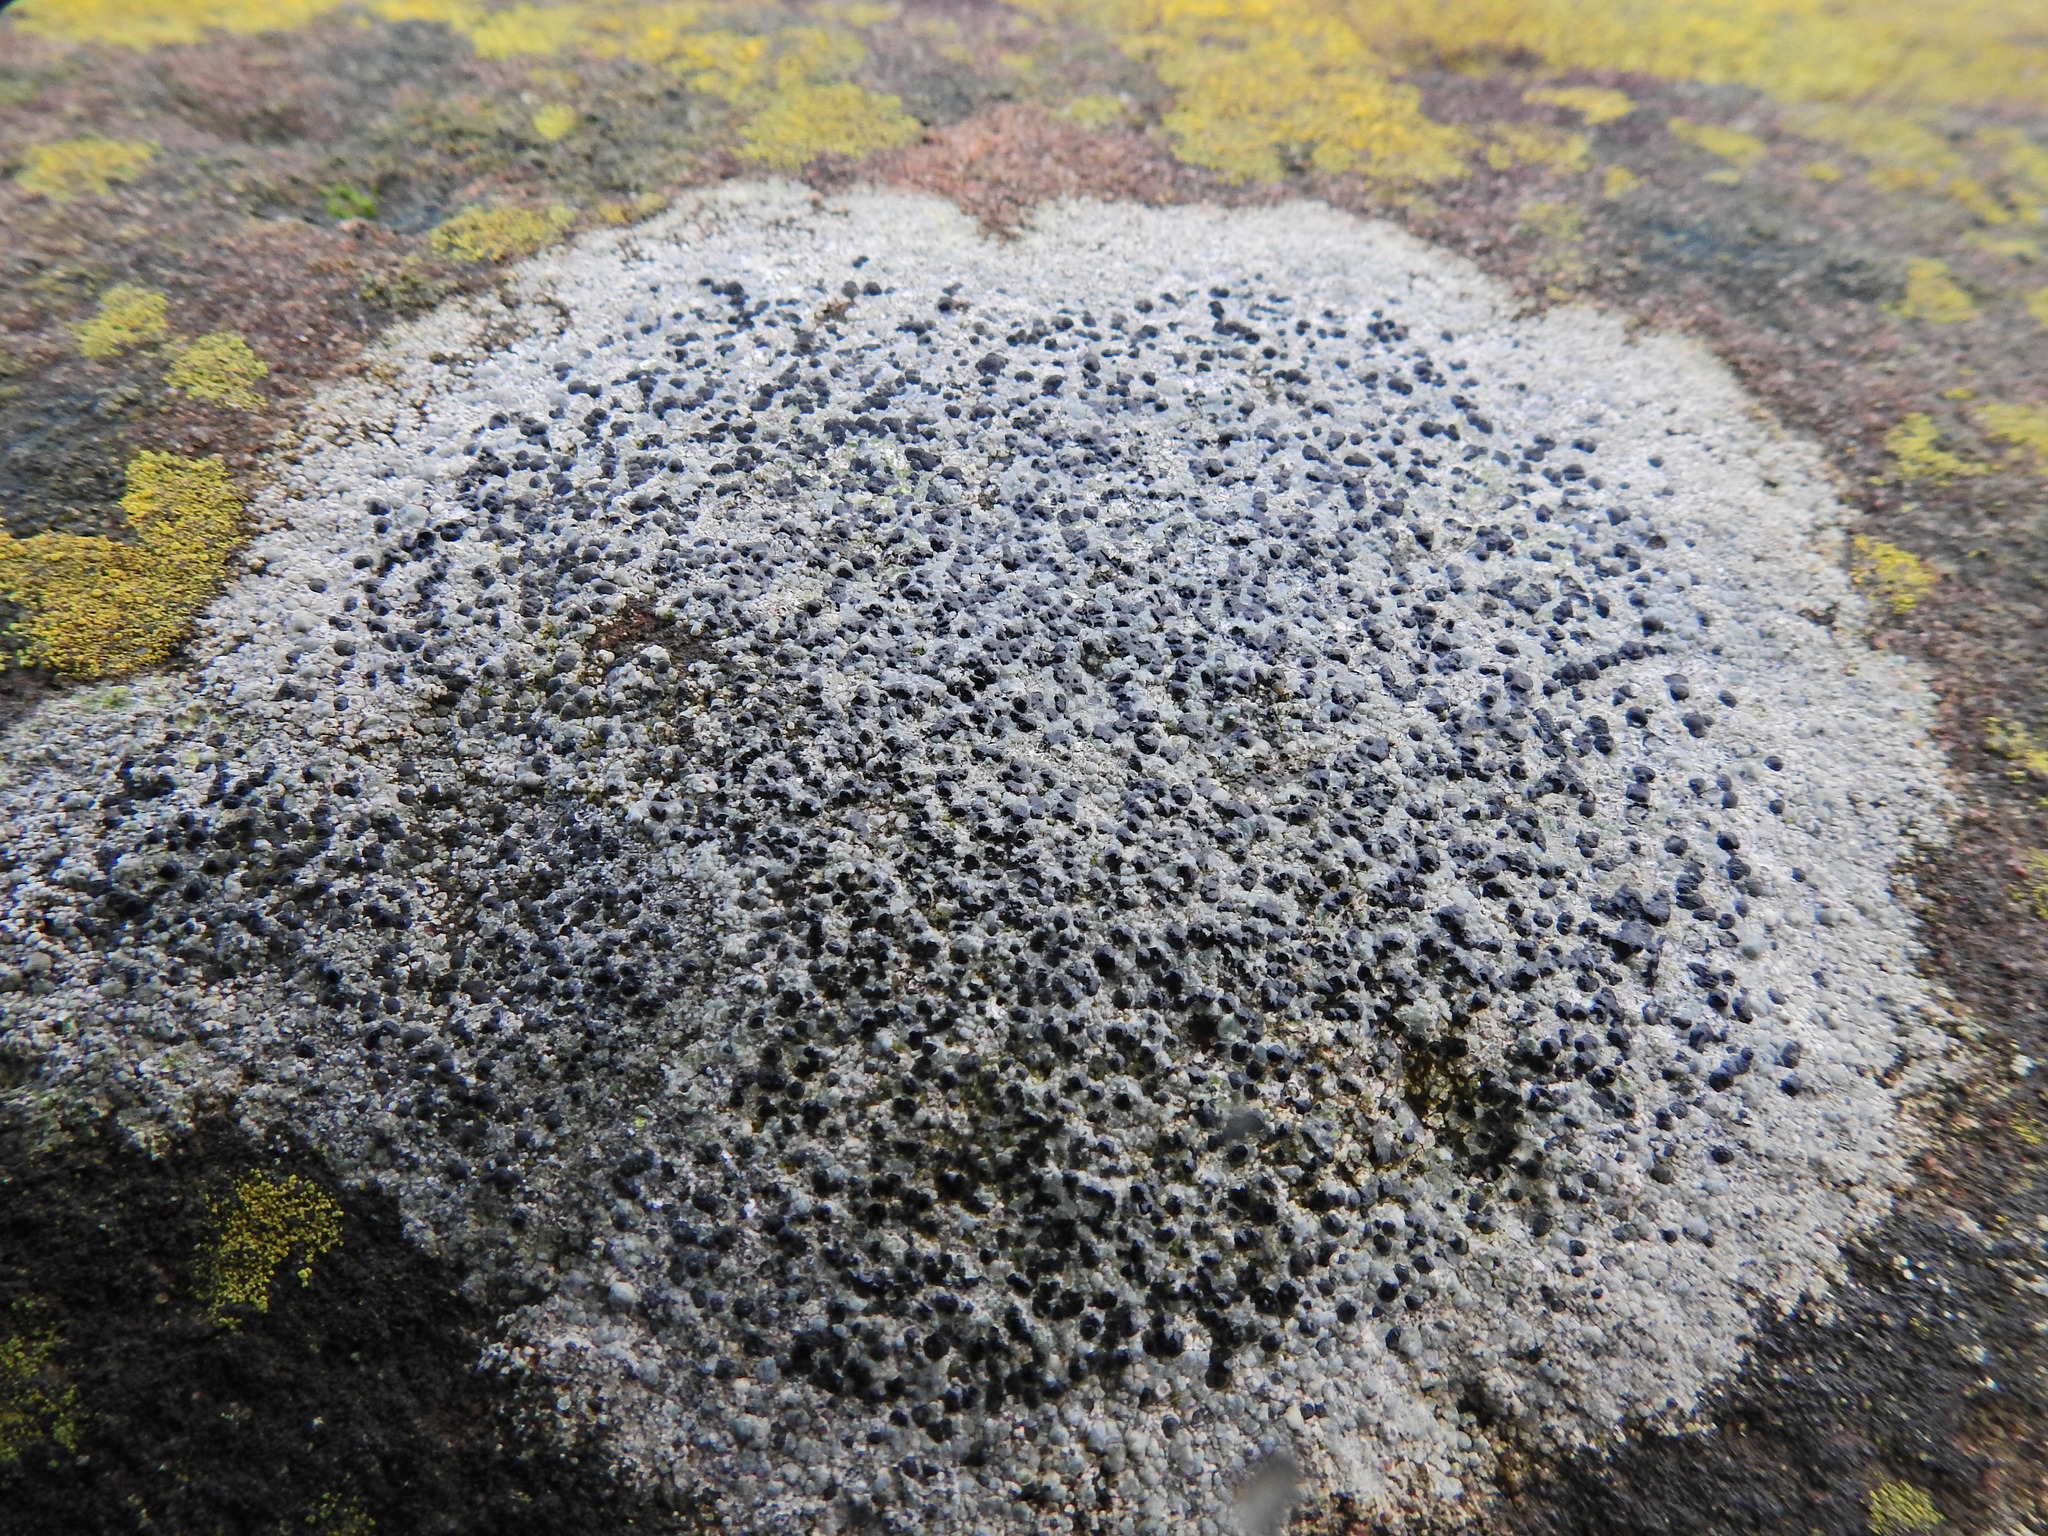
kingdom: Fungi
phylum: Ascomycota
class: Lecanoromycetes
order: Lecanorales
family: Lecanoraceae
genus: Lecidella
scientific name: Lecidella stigmatea
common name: Limestone disc lichen
